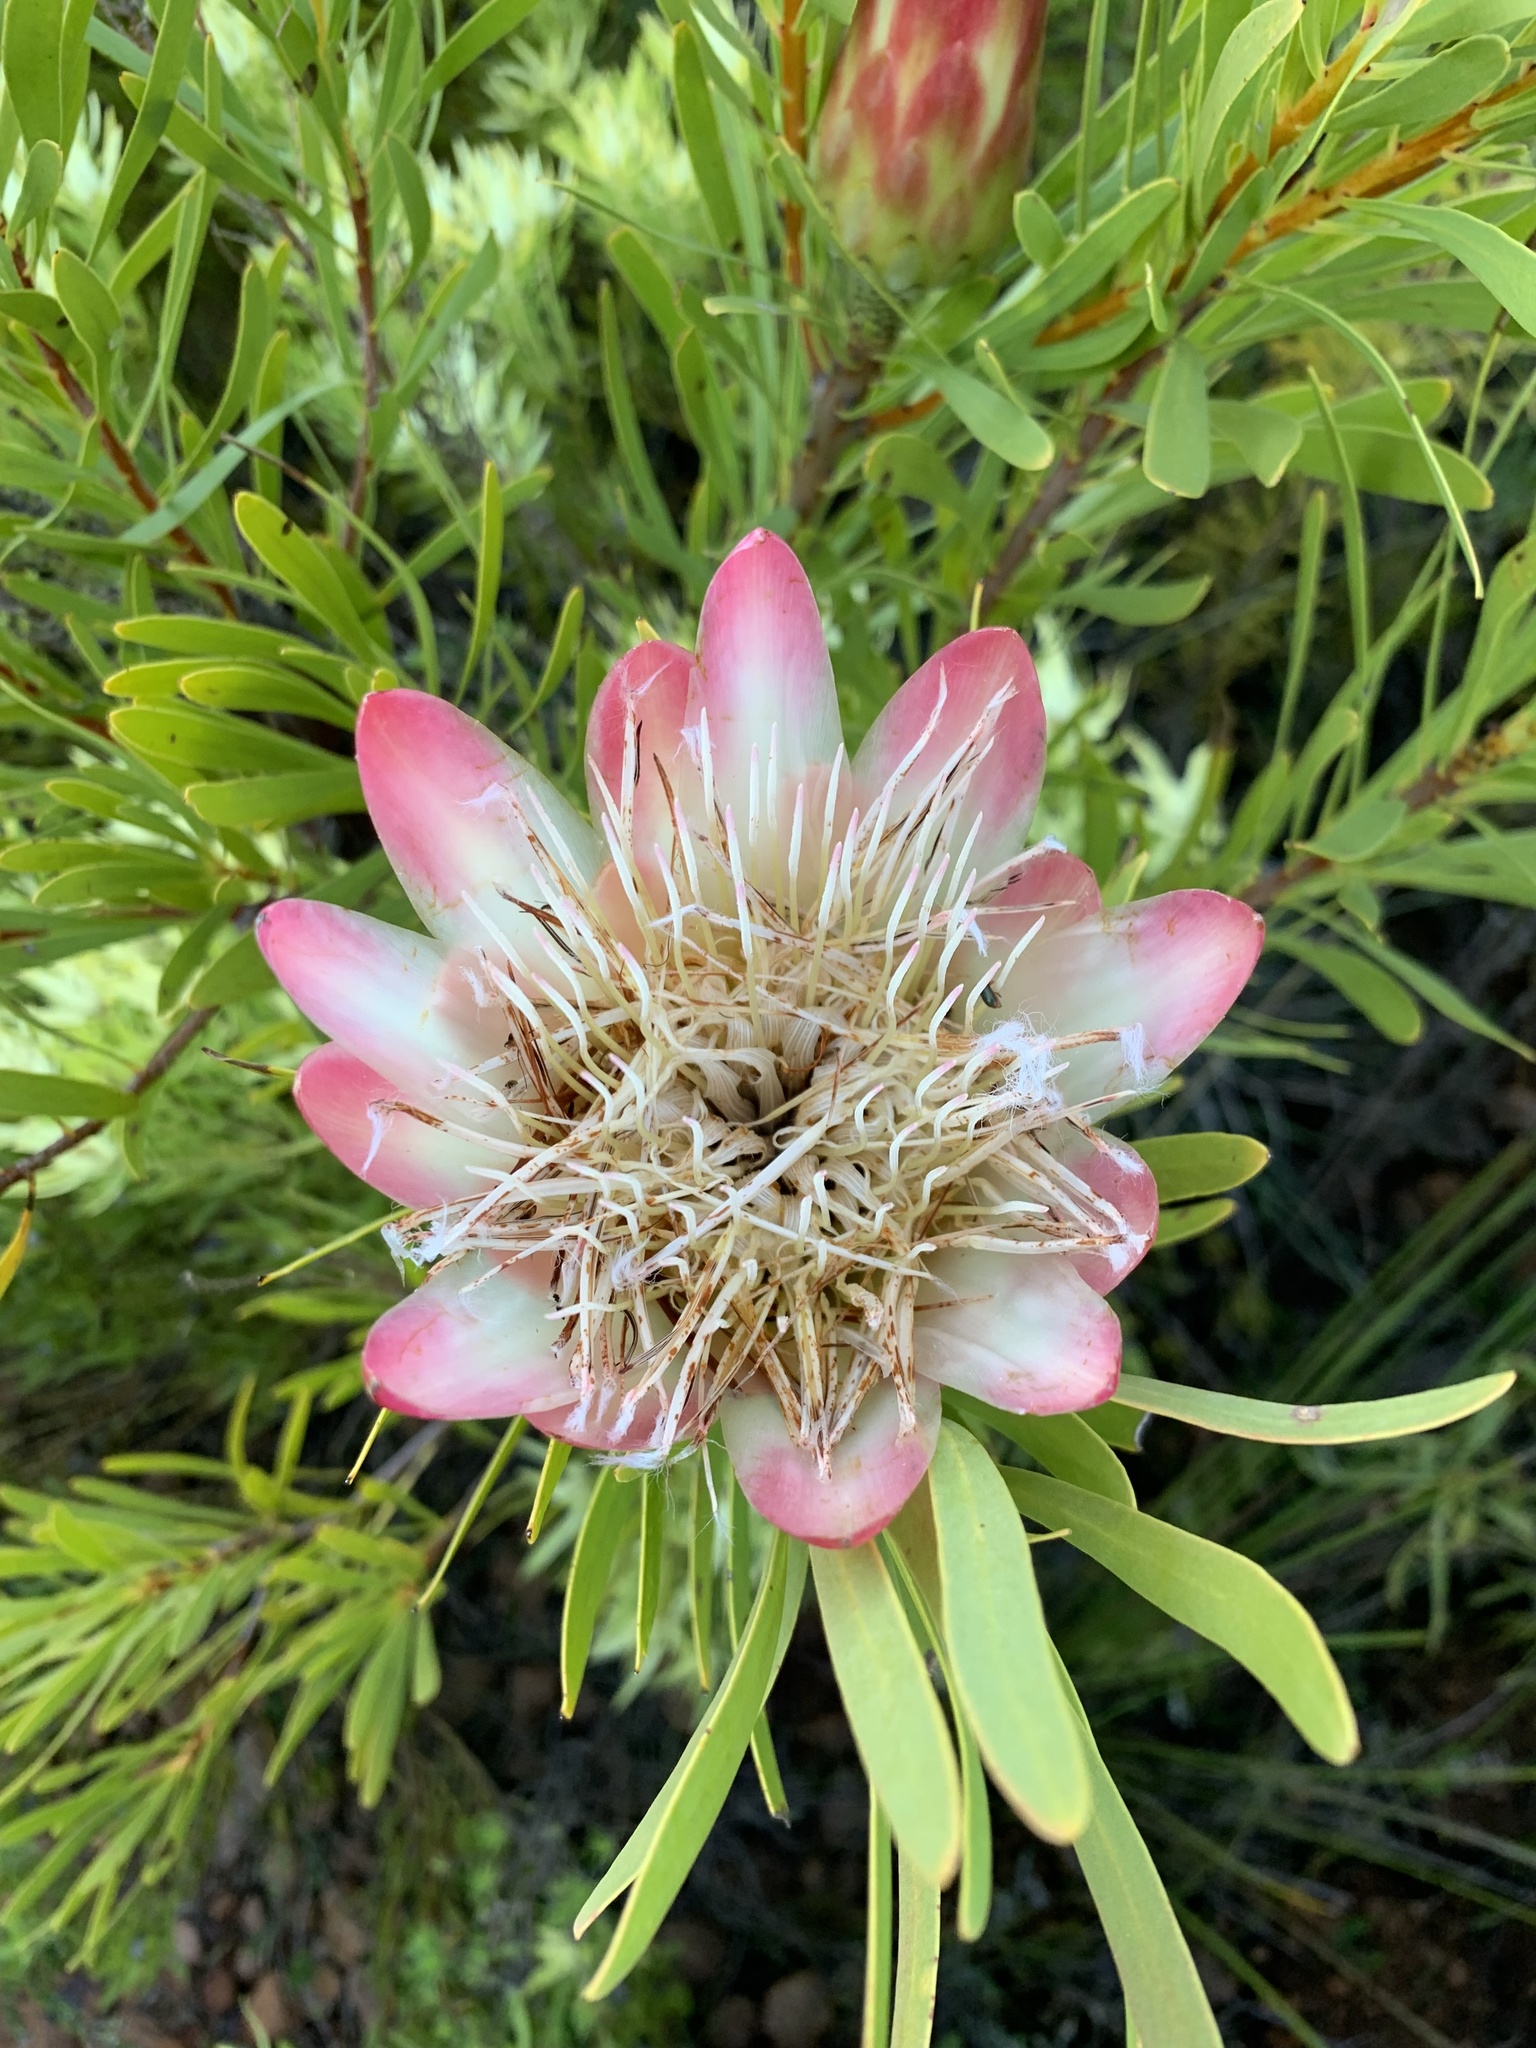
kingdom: Plantae
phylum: Tracheophyta
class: Magnoliopsida
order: Proteales
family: Proteaceae
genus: Protea
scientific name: Protea repens
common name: Sugarbush
